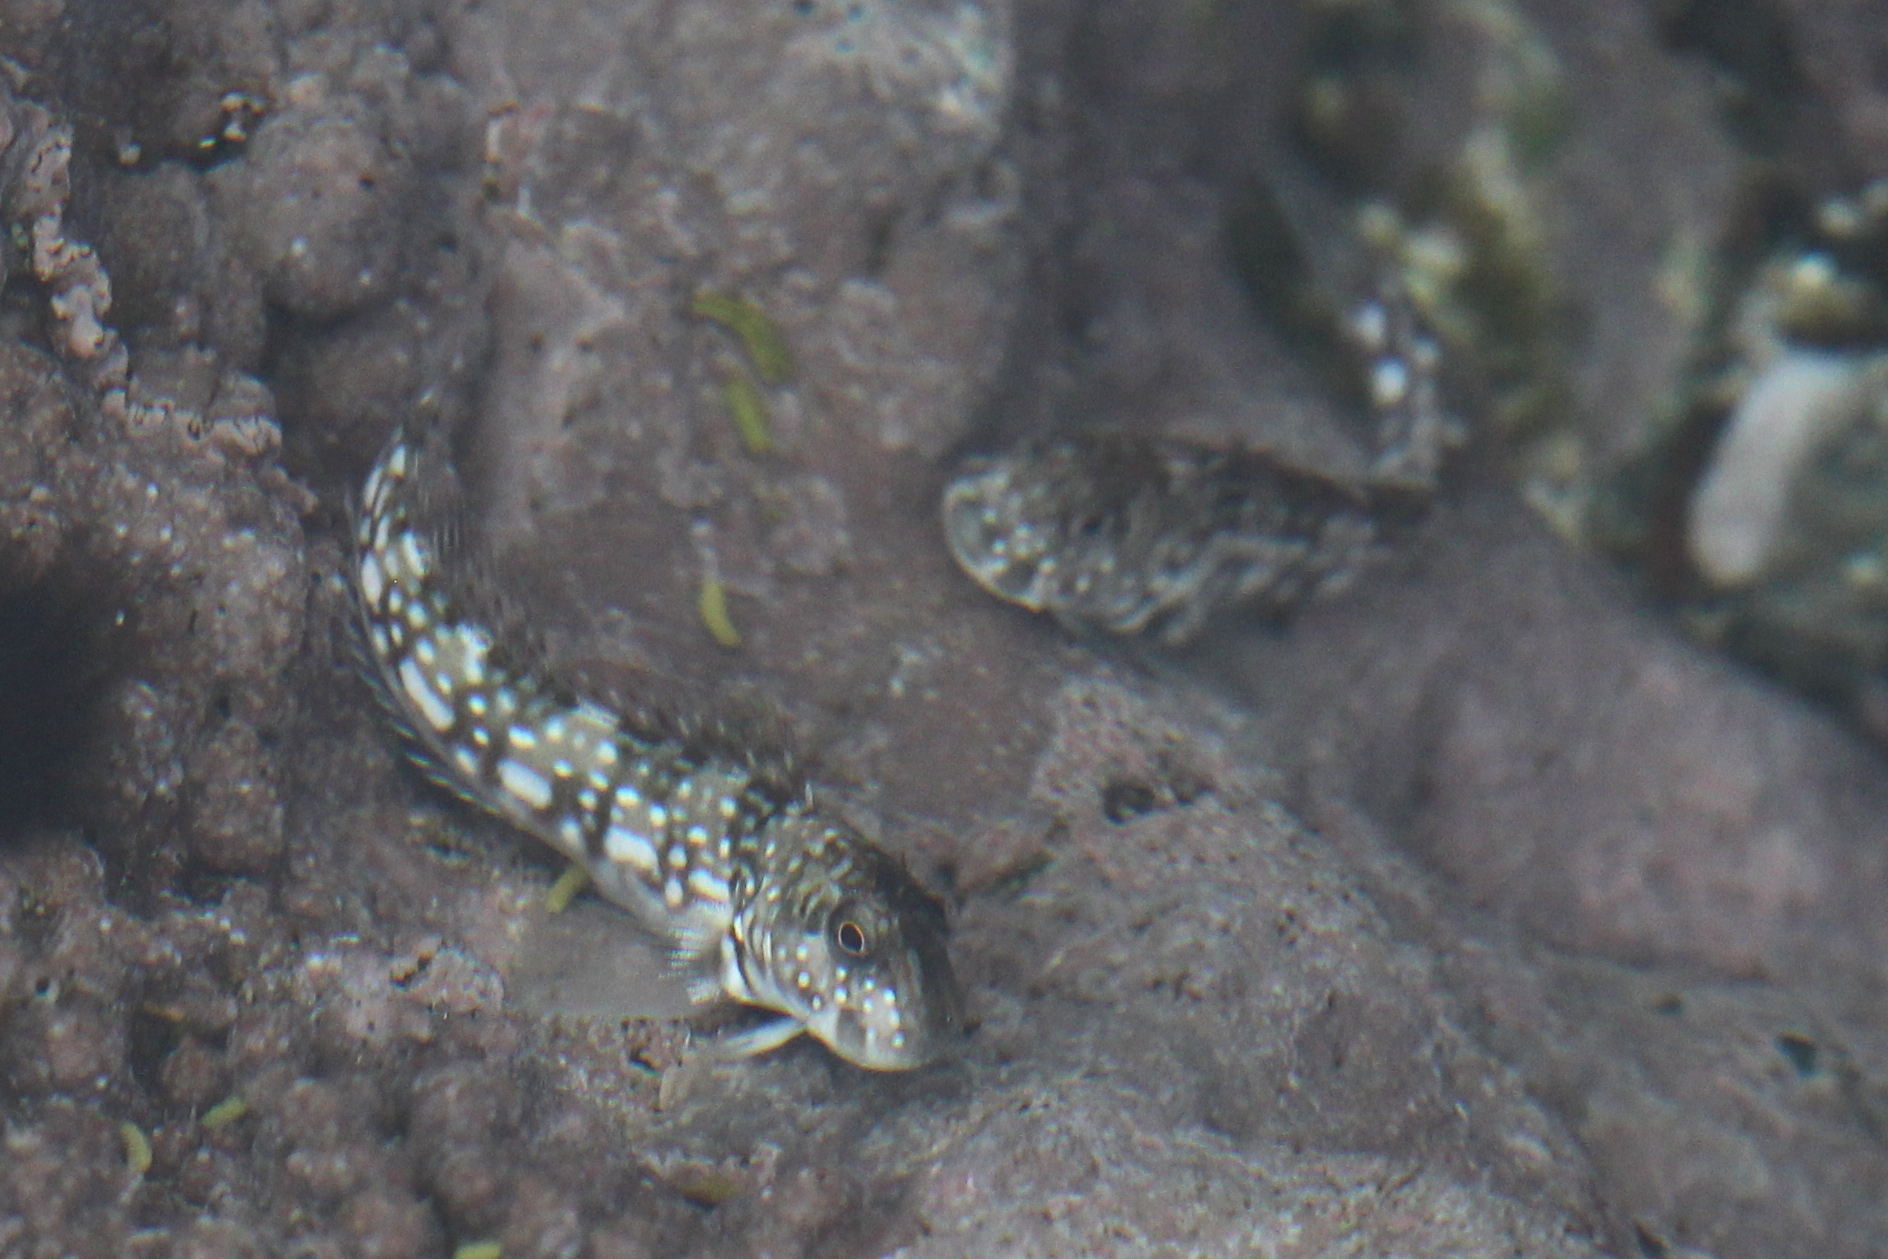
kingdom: Animalia
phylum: Chordata
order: Perciformes
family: Blenniidae
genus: Istiblennius
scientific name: Istiblennius spilotus
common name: Spotted rockskipper
